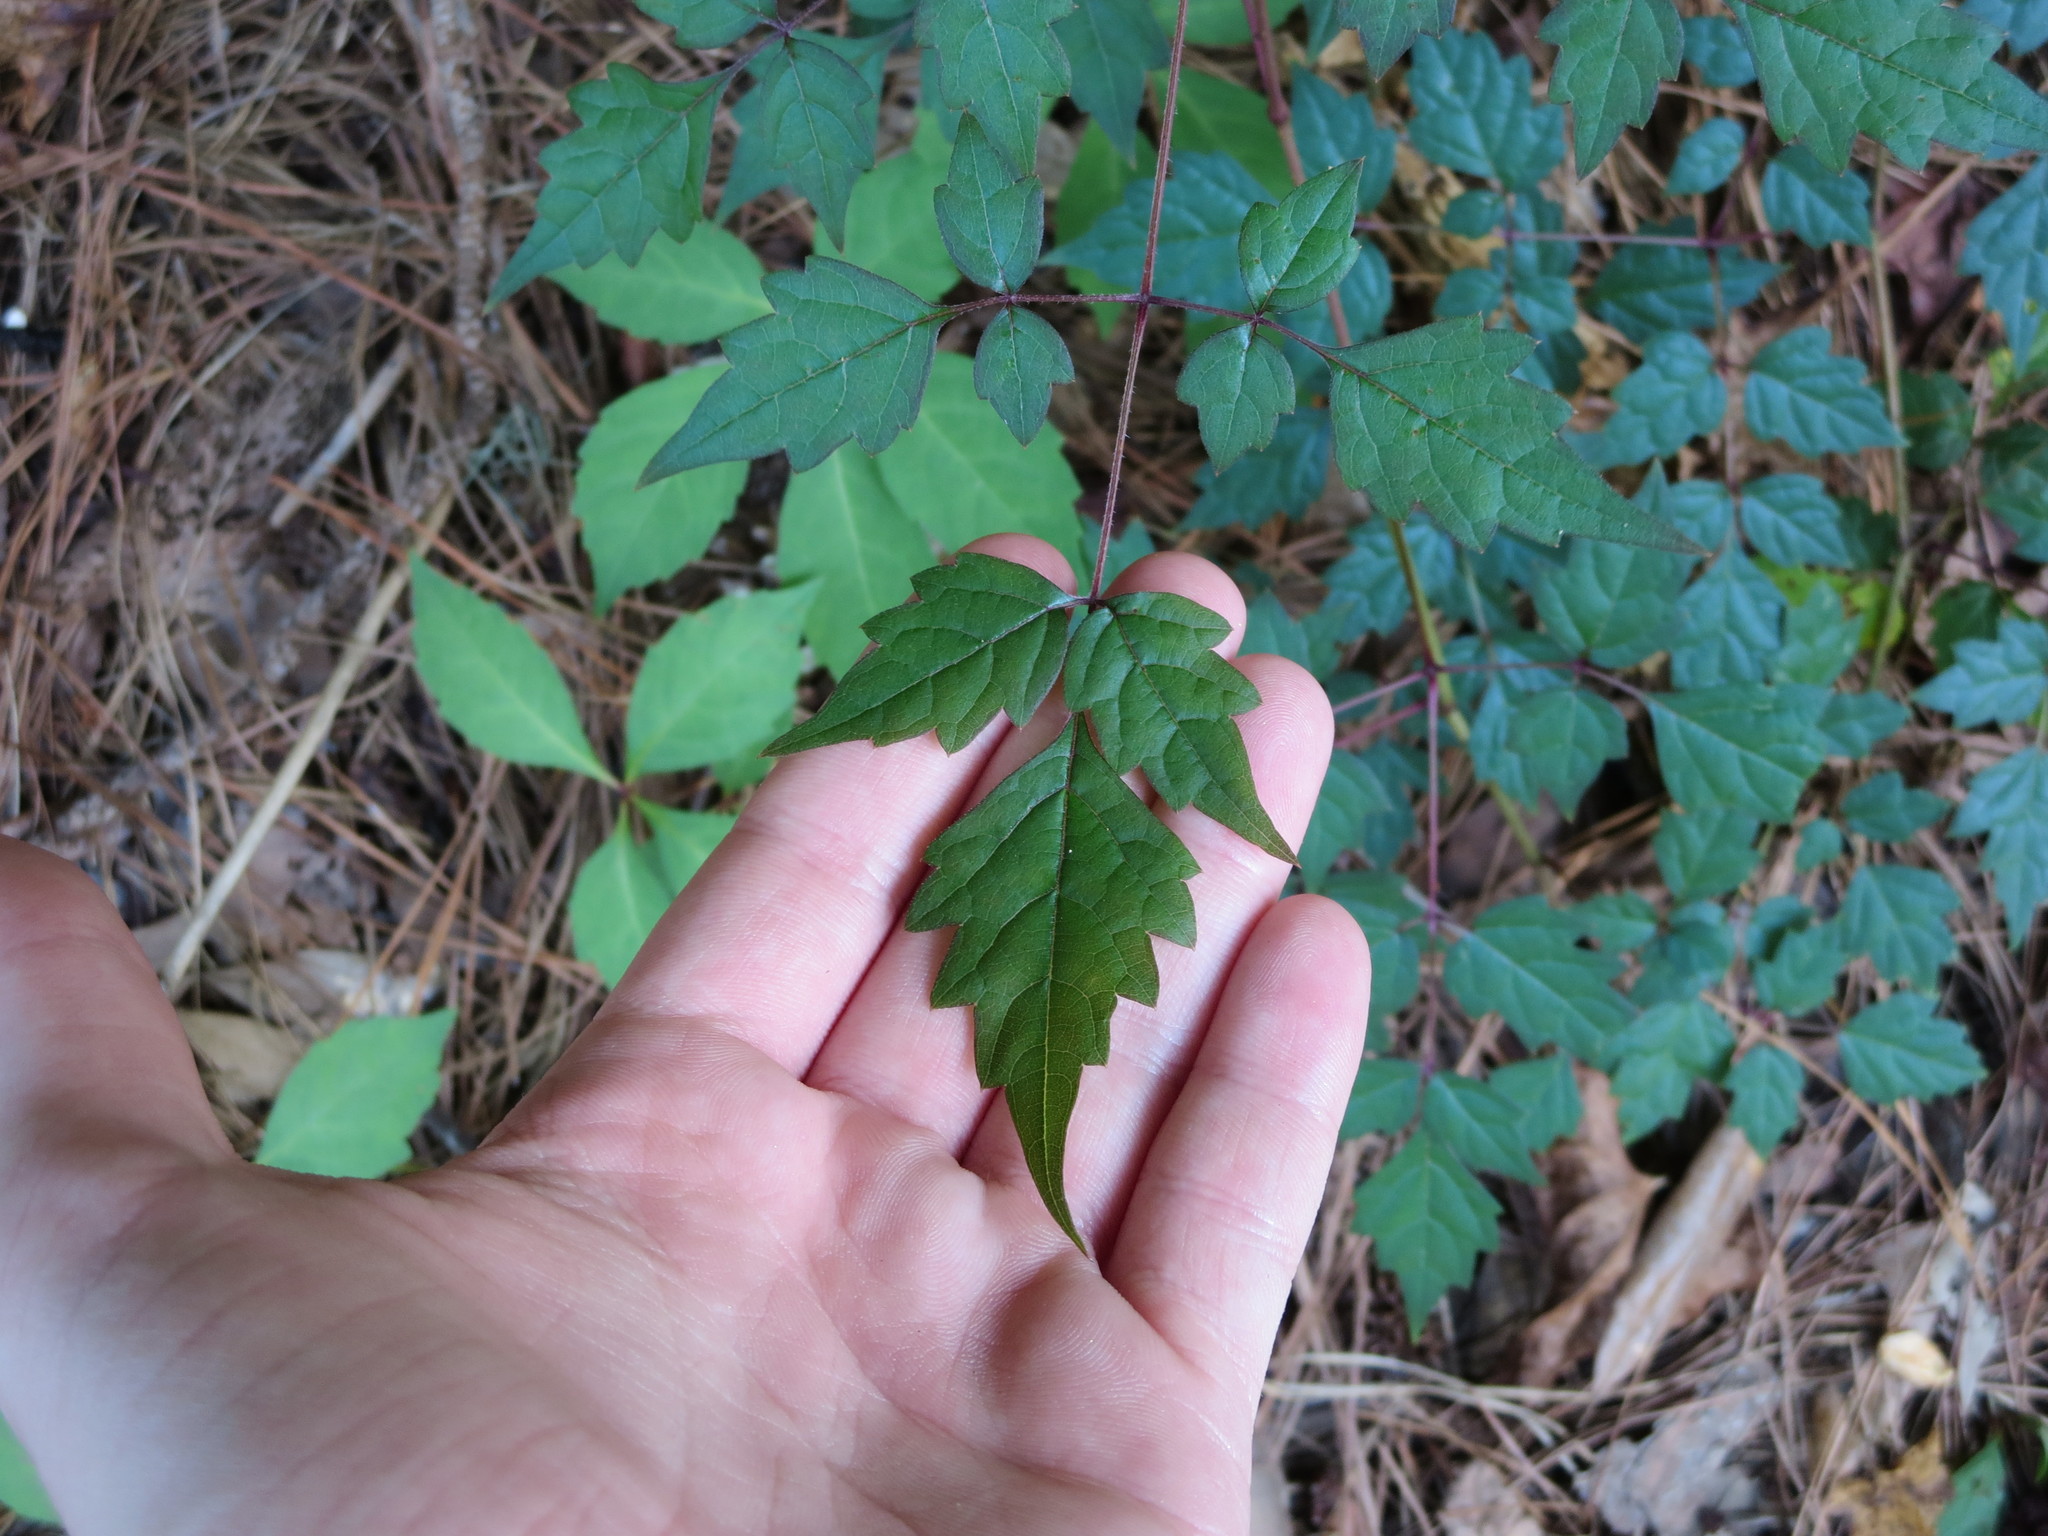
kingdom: Plantae
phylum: Tracheophyta
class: Magnoliopsida
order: Vitales
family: Vitaceae
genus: Nekemias
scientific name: Nekemias arborea
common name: Peppervine
